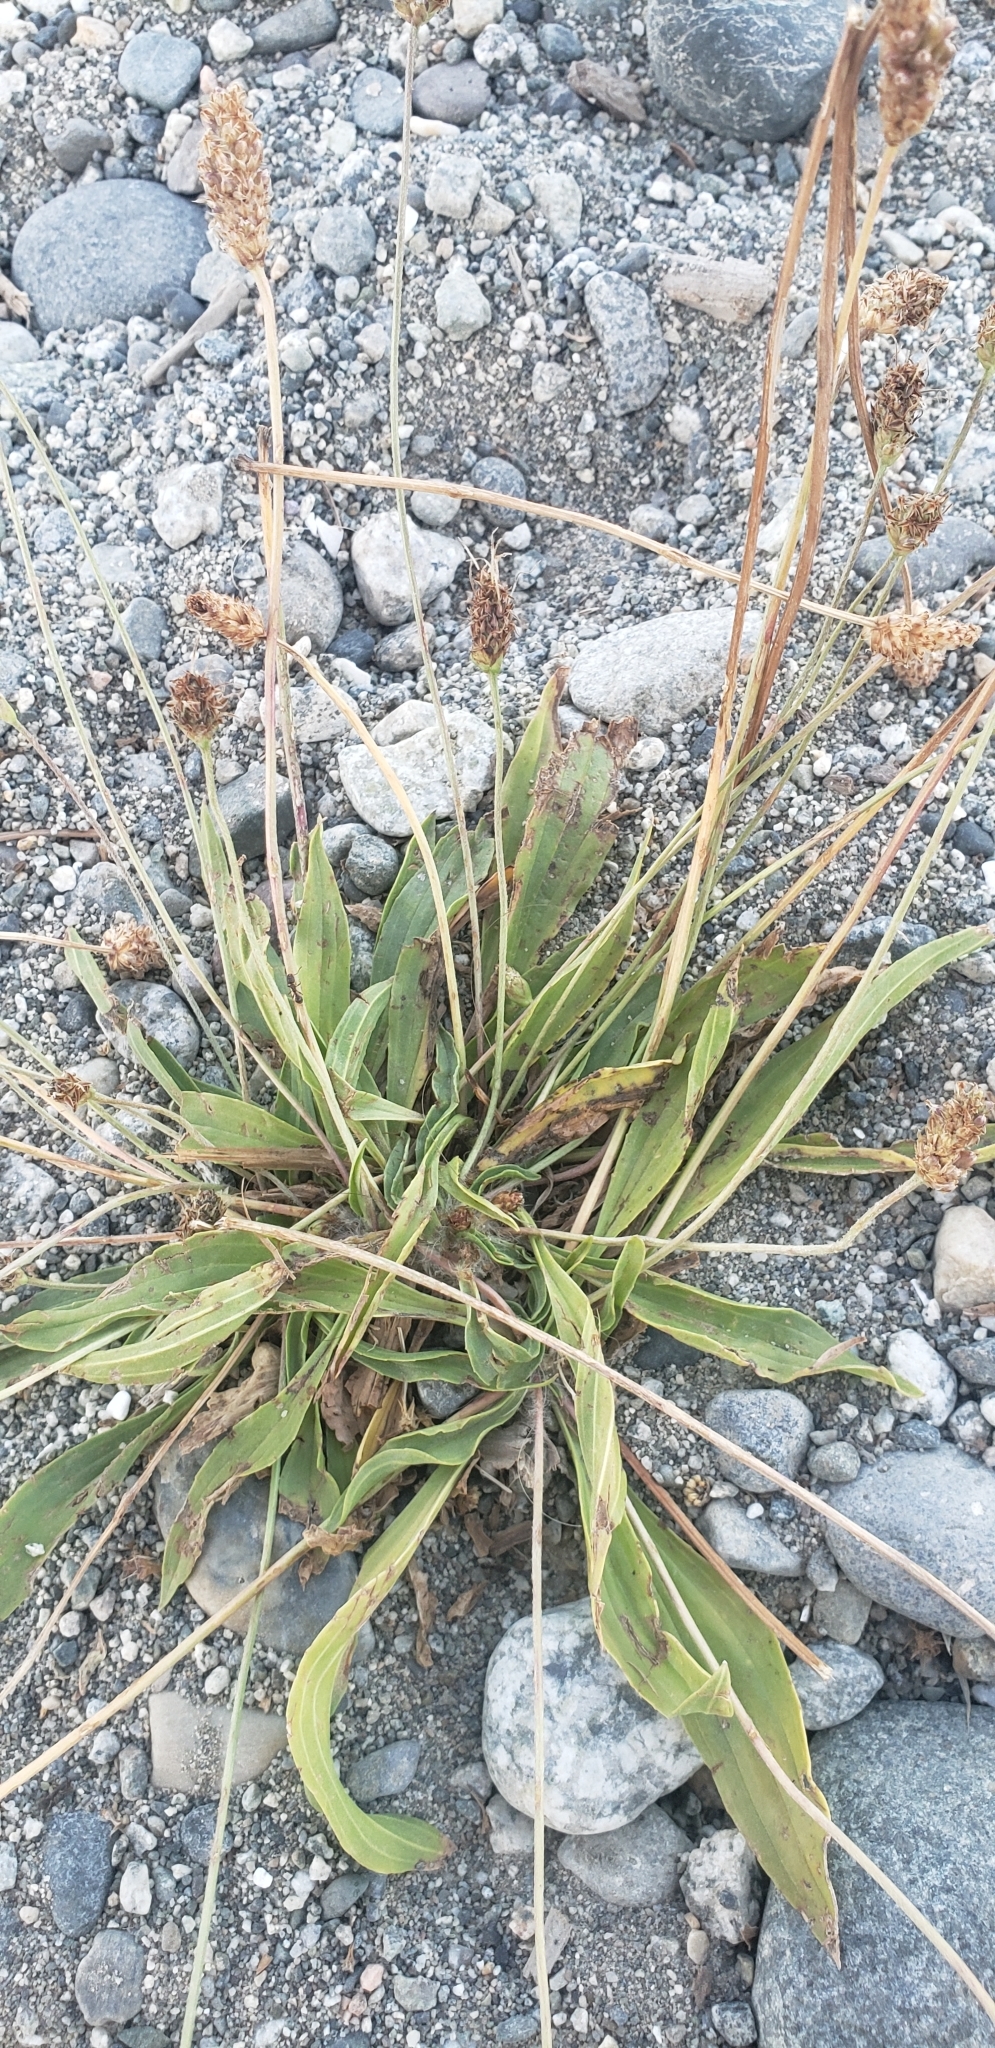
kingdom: Plantae
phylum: Tracheophyta
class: Magnoliopsida
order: Lamiales
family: Plantaginaceae
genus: Plantago
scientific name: Plantago lanceolata
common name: Ribwort plantain
